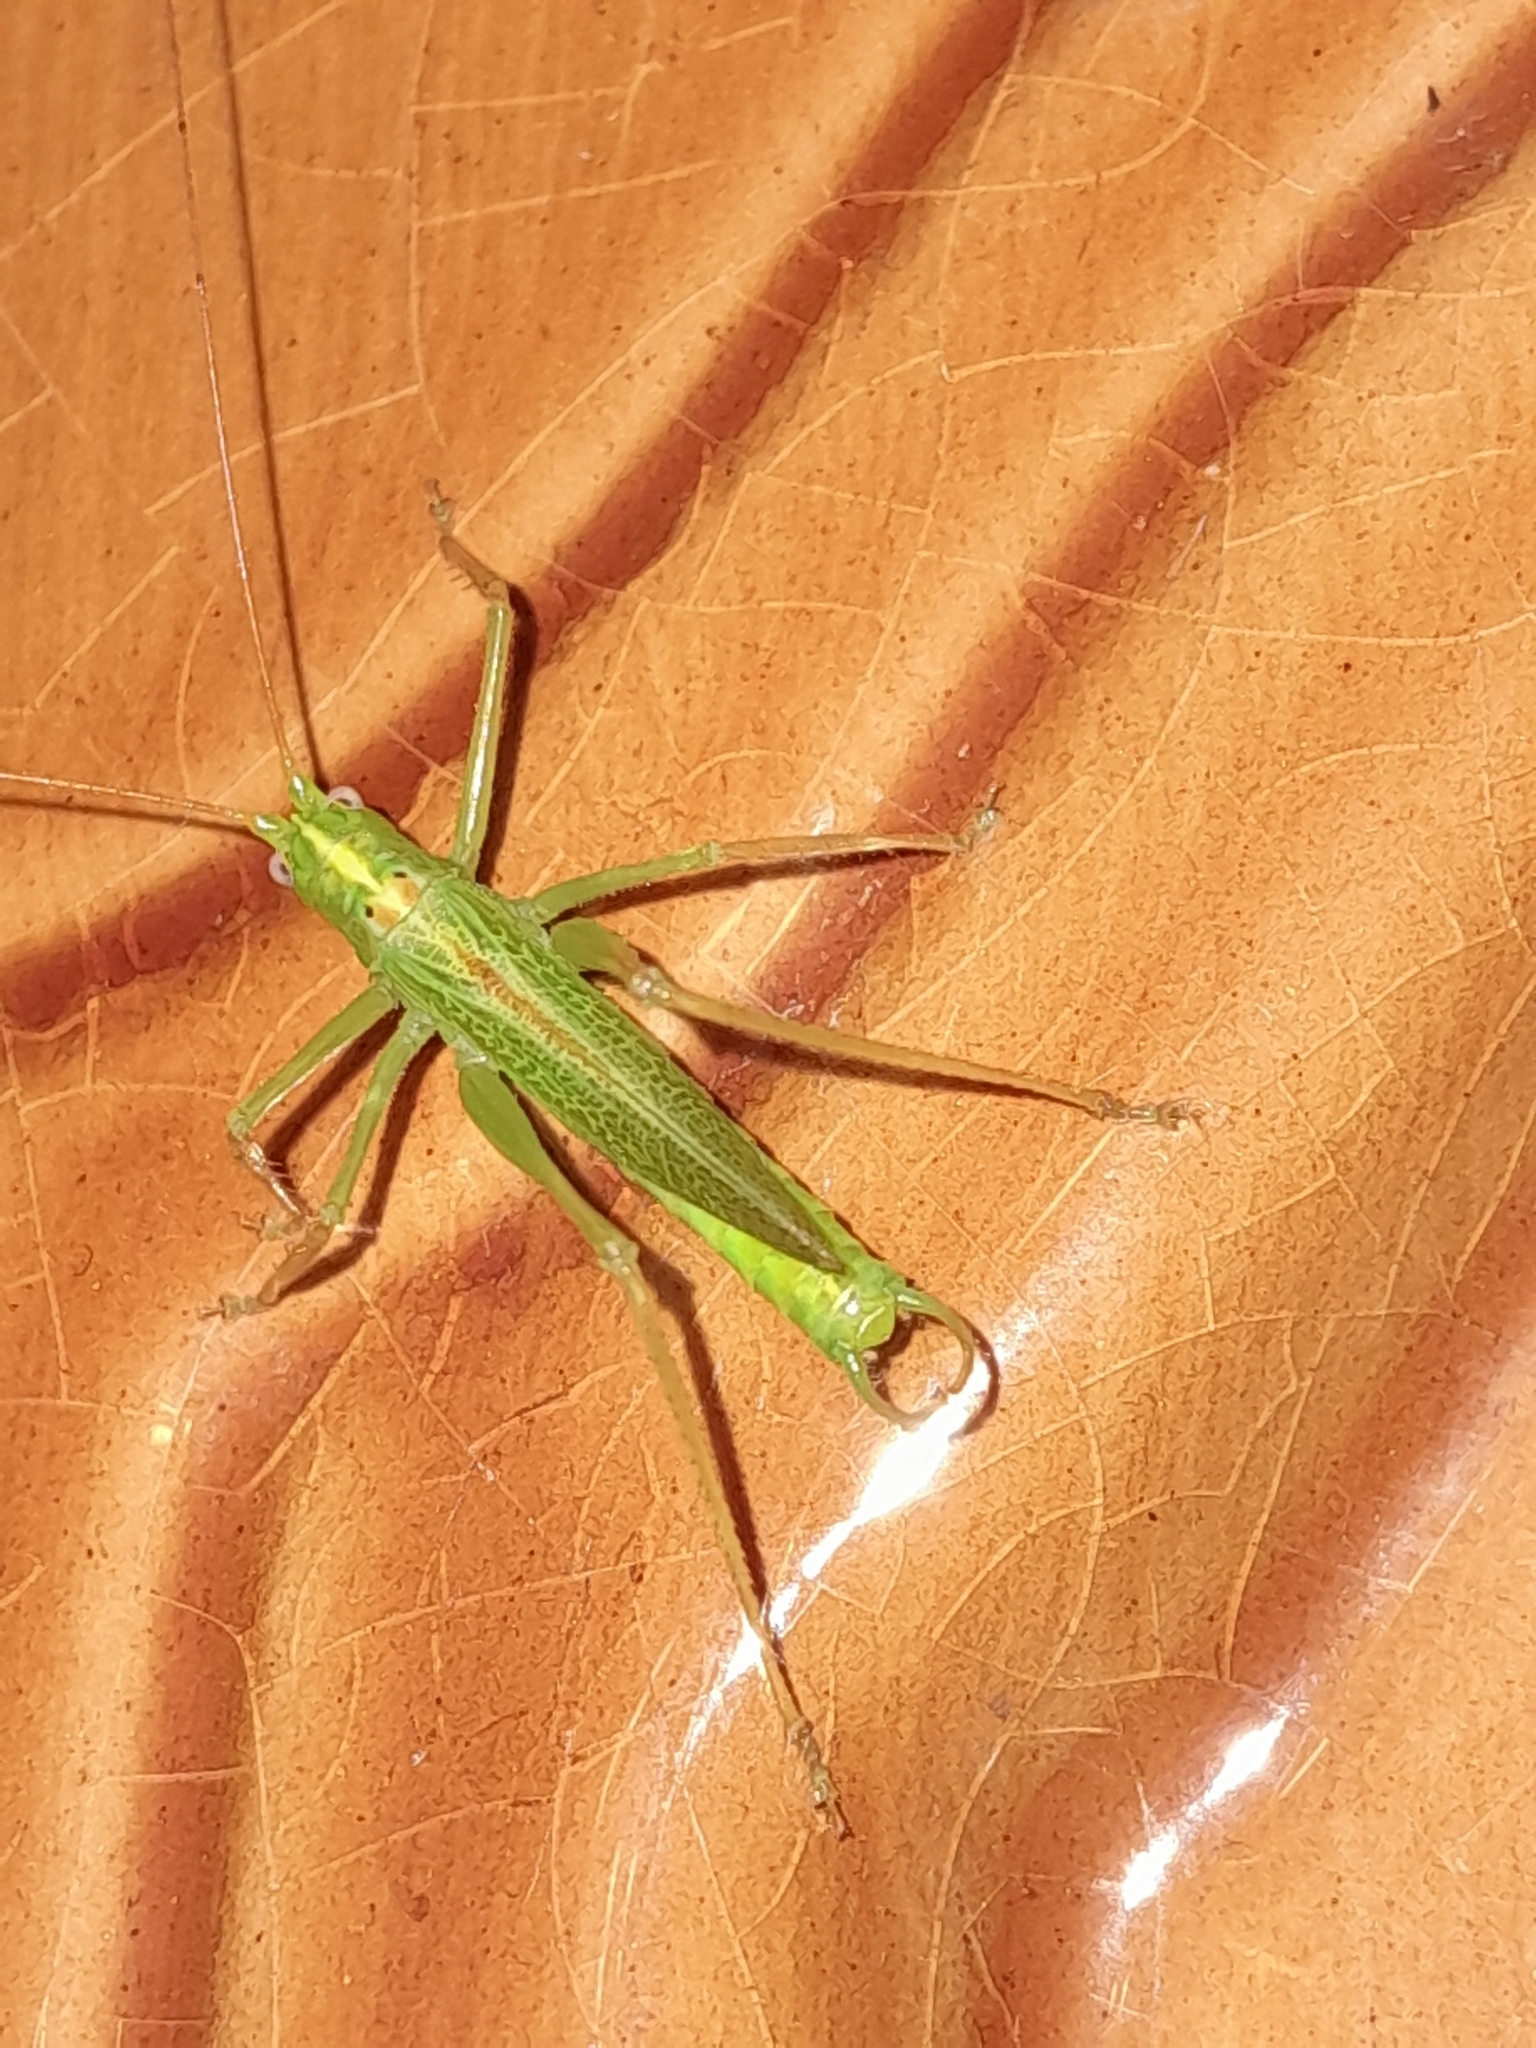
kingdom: Animalia
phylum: Arthropoda
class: Insecta
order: Orthoptera
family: Tettigoniidae
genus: Meconema
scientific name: Meconema thalassinum
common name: Oak bush-cricket
